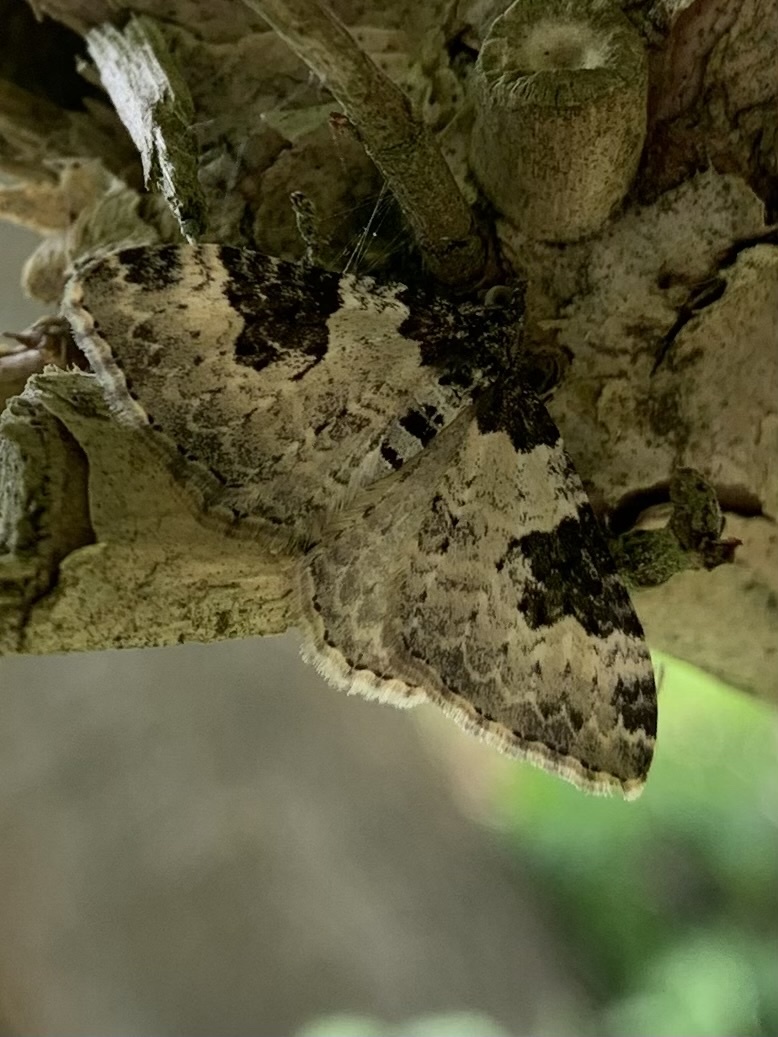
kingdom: Animalia
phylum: Arthropoda
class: Insecta
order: Lepidoptera
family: Geometridae
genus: Xanthorhoe
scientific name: Xanthorhoe fluctuata
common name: Garden carpet
